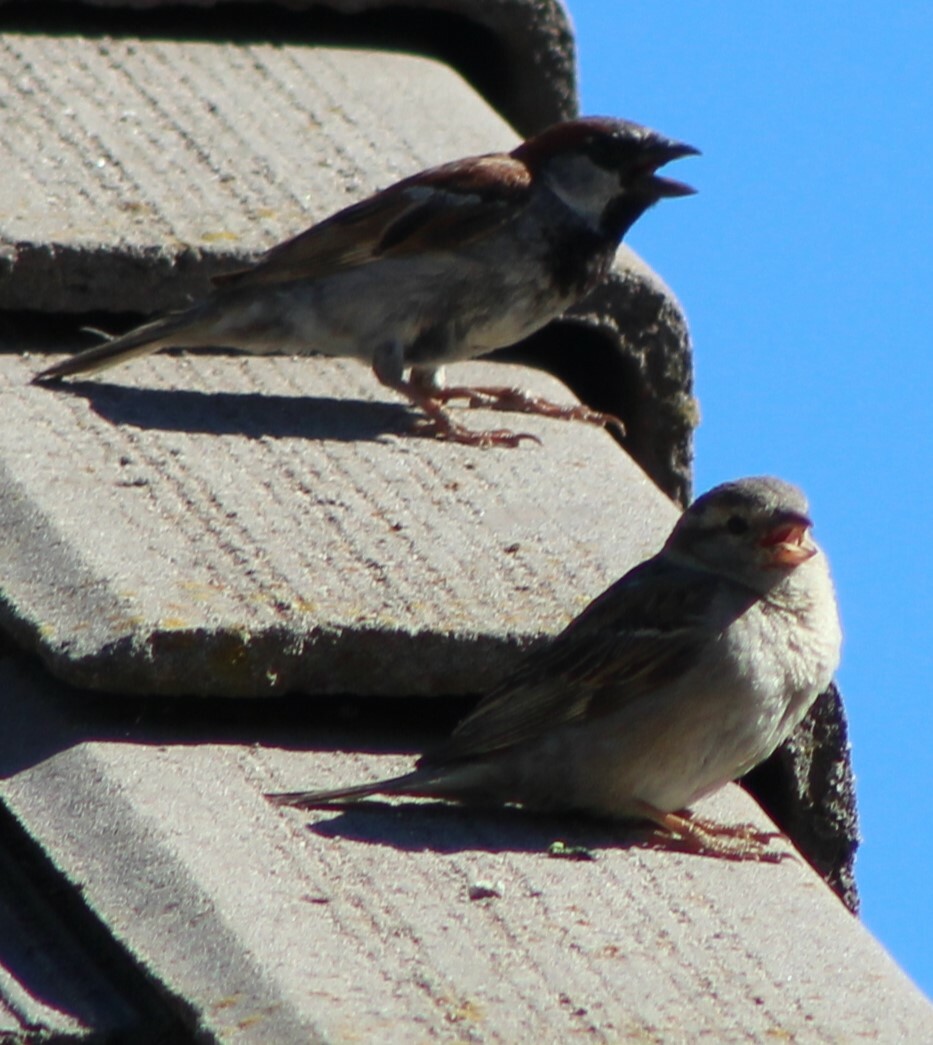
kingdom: Animalia
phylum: Chordata
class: Aves
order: Passeriformes
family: Passeridae
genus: Passer
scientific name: Passer domesticus
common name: House sparrow
